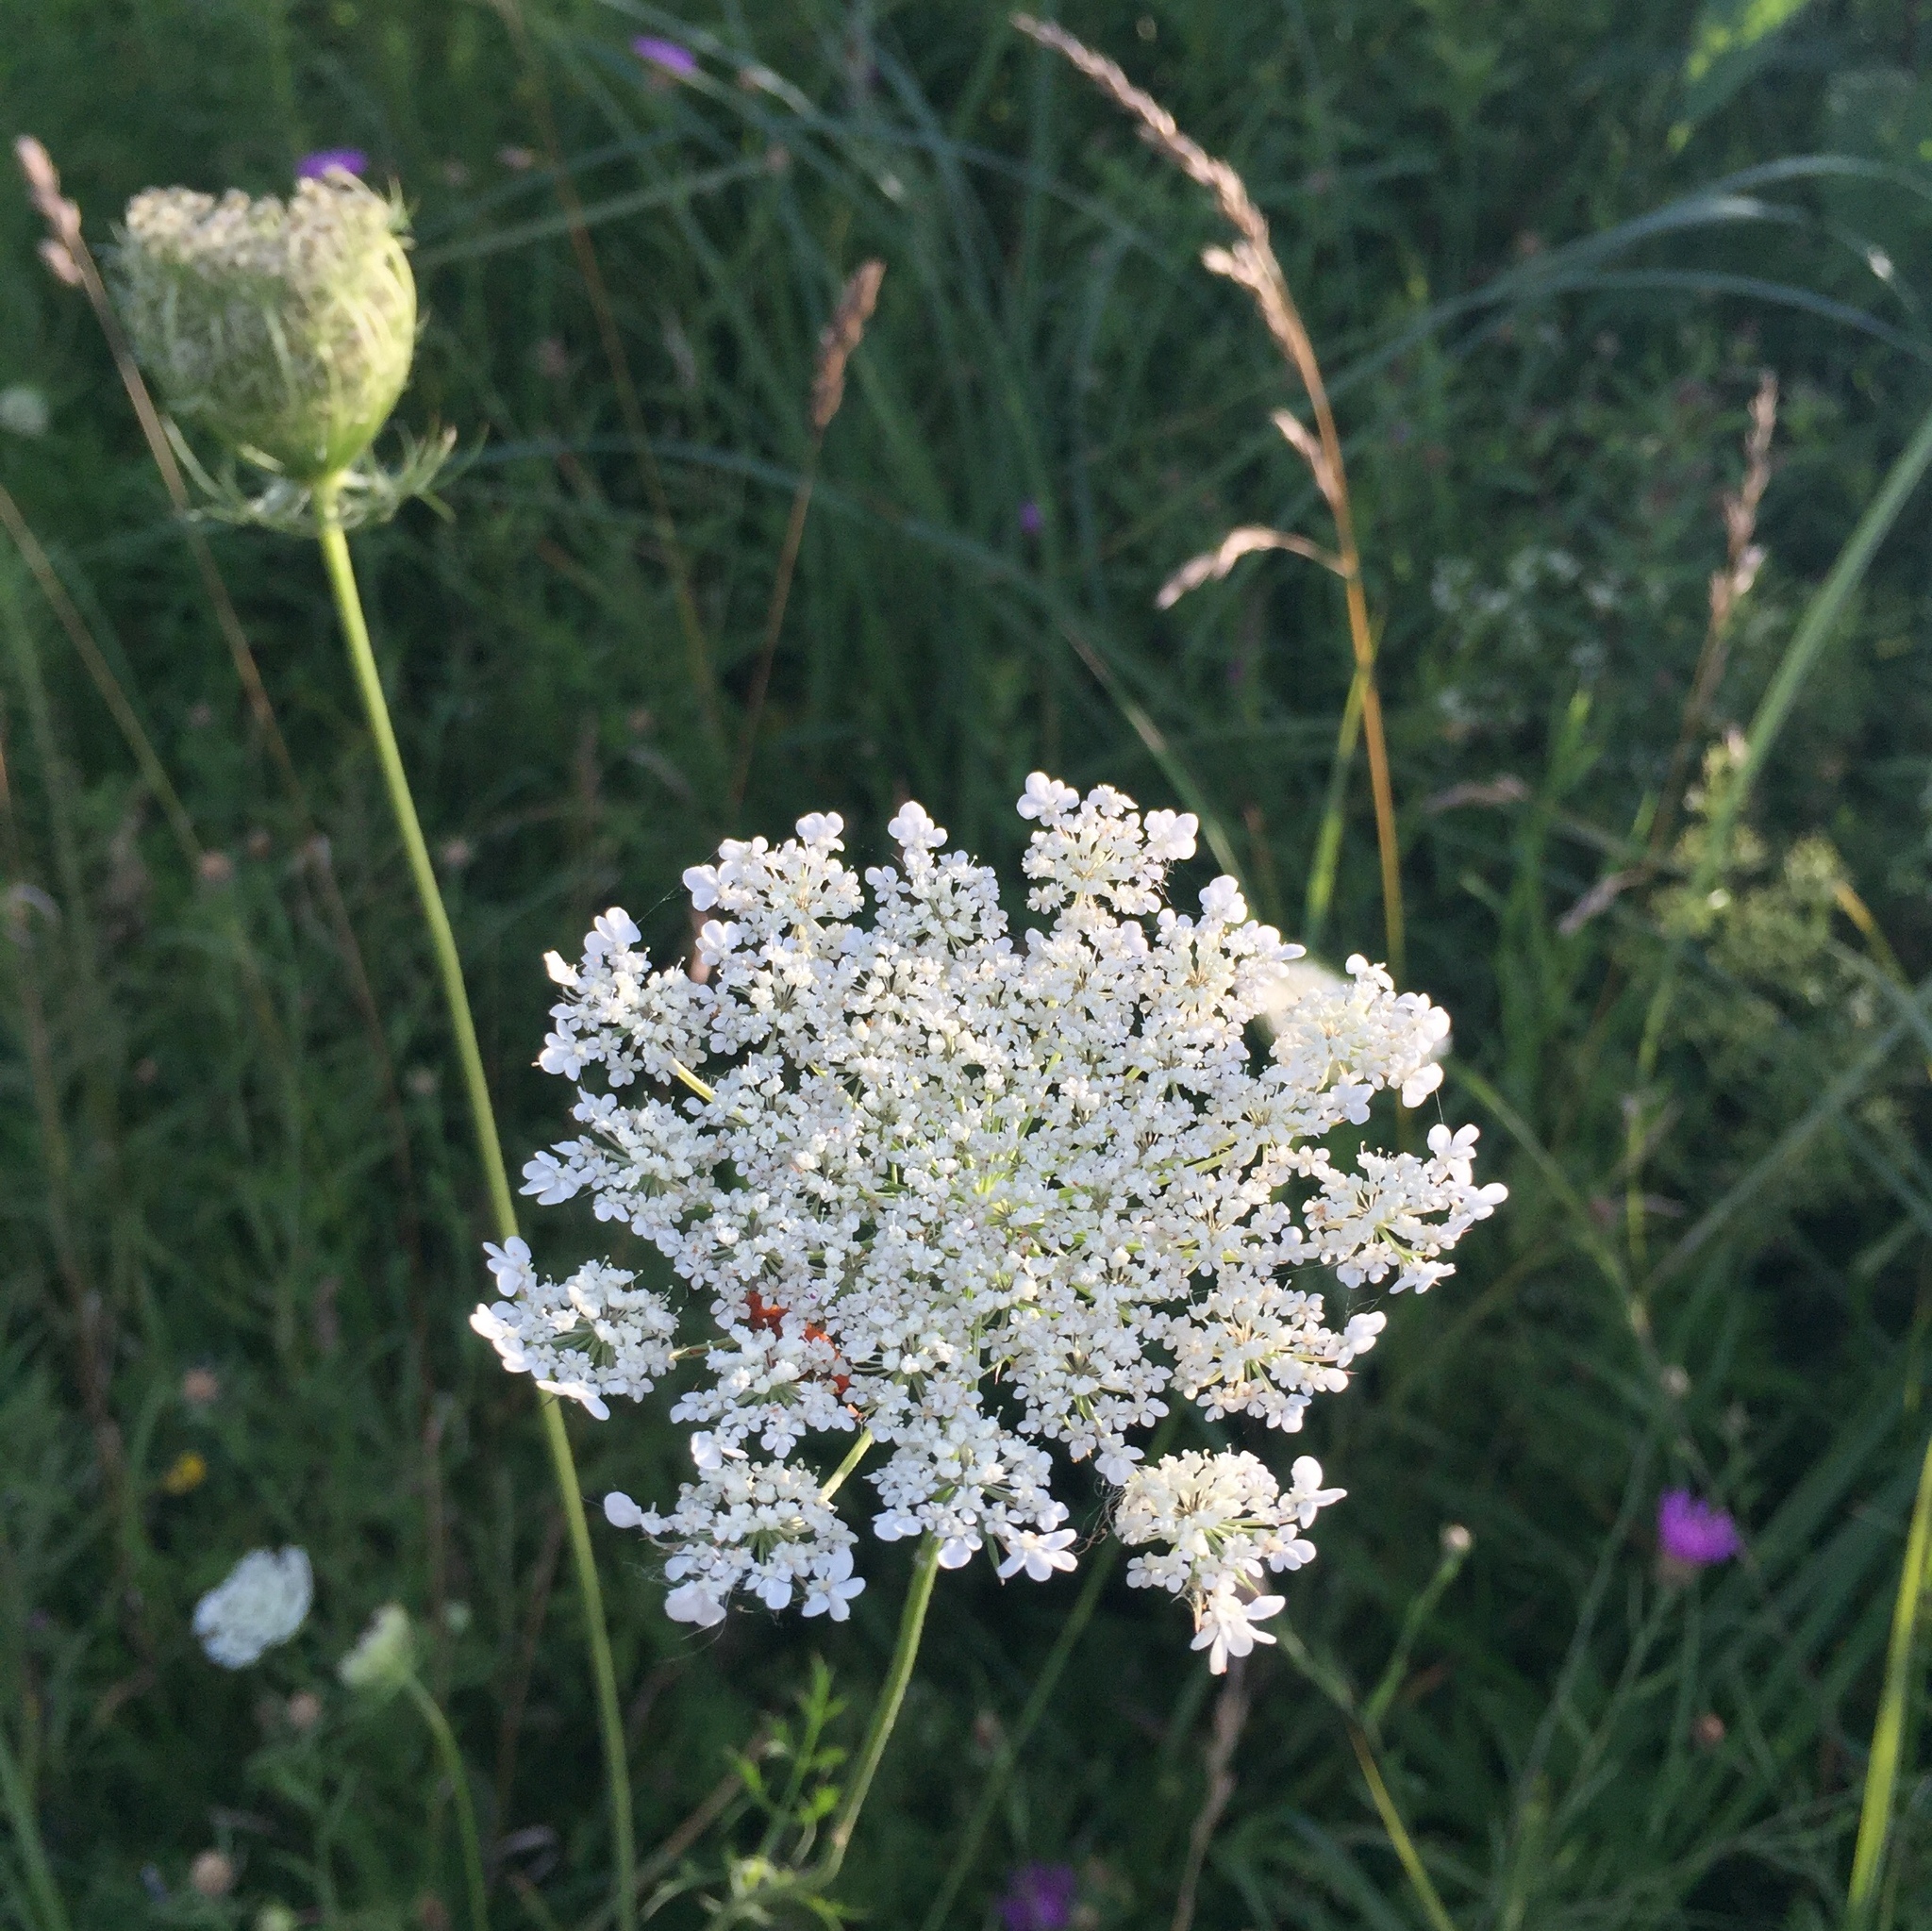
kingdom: Plantae
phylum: Tracheophyta
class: Magnoliopsida
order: Apiales
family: Apiaceae
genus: Daucus
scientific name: Daucus carota
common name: Wild carrot
